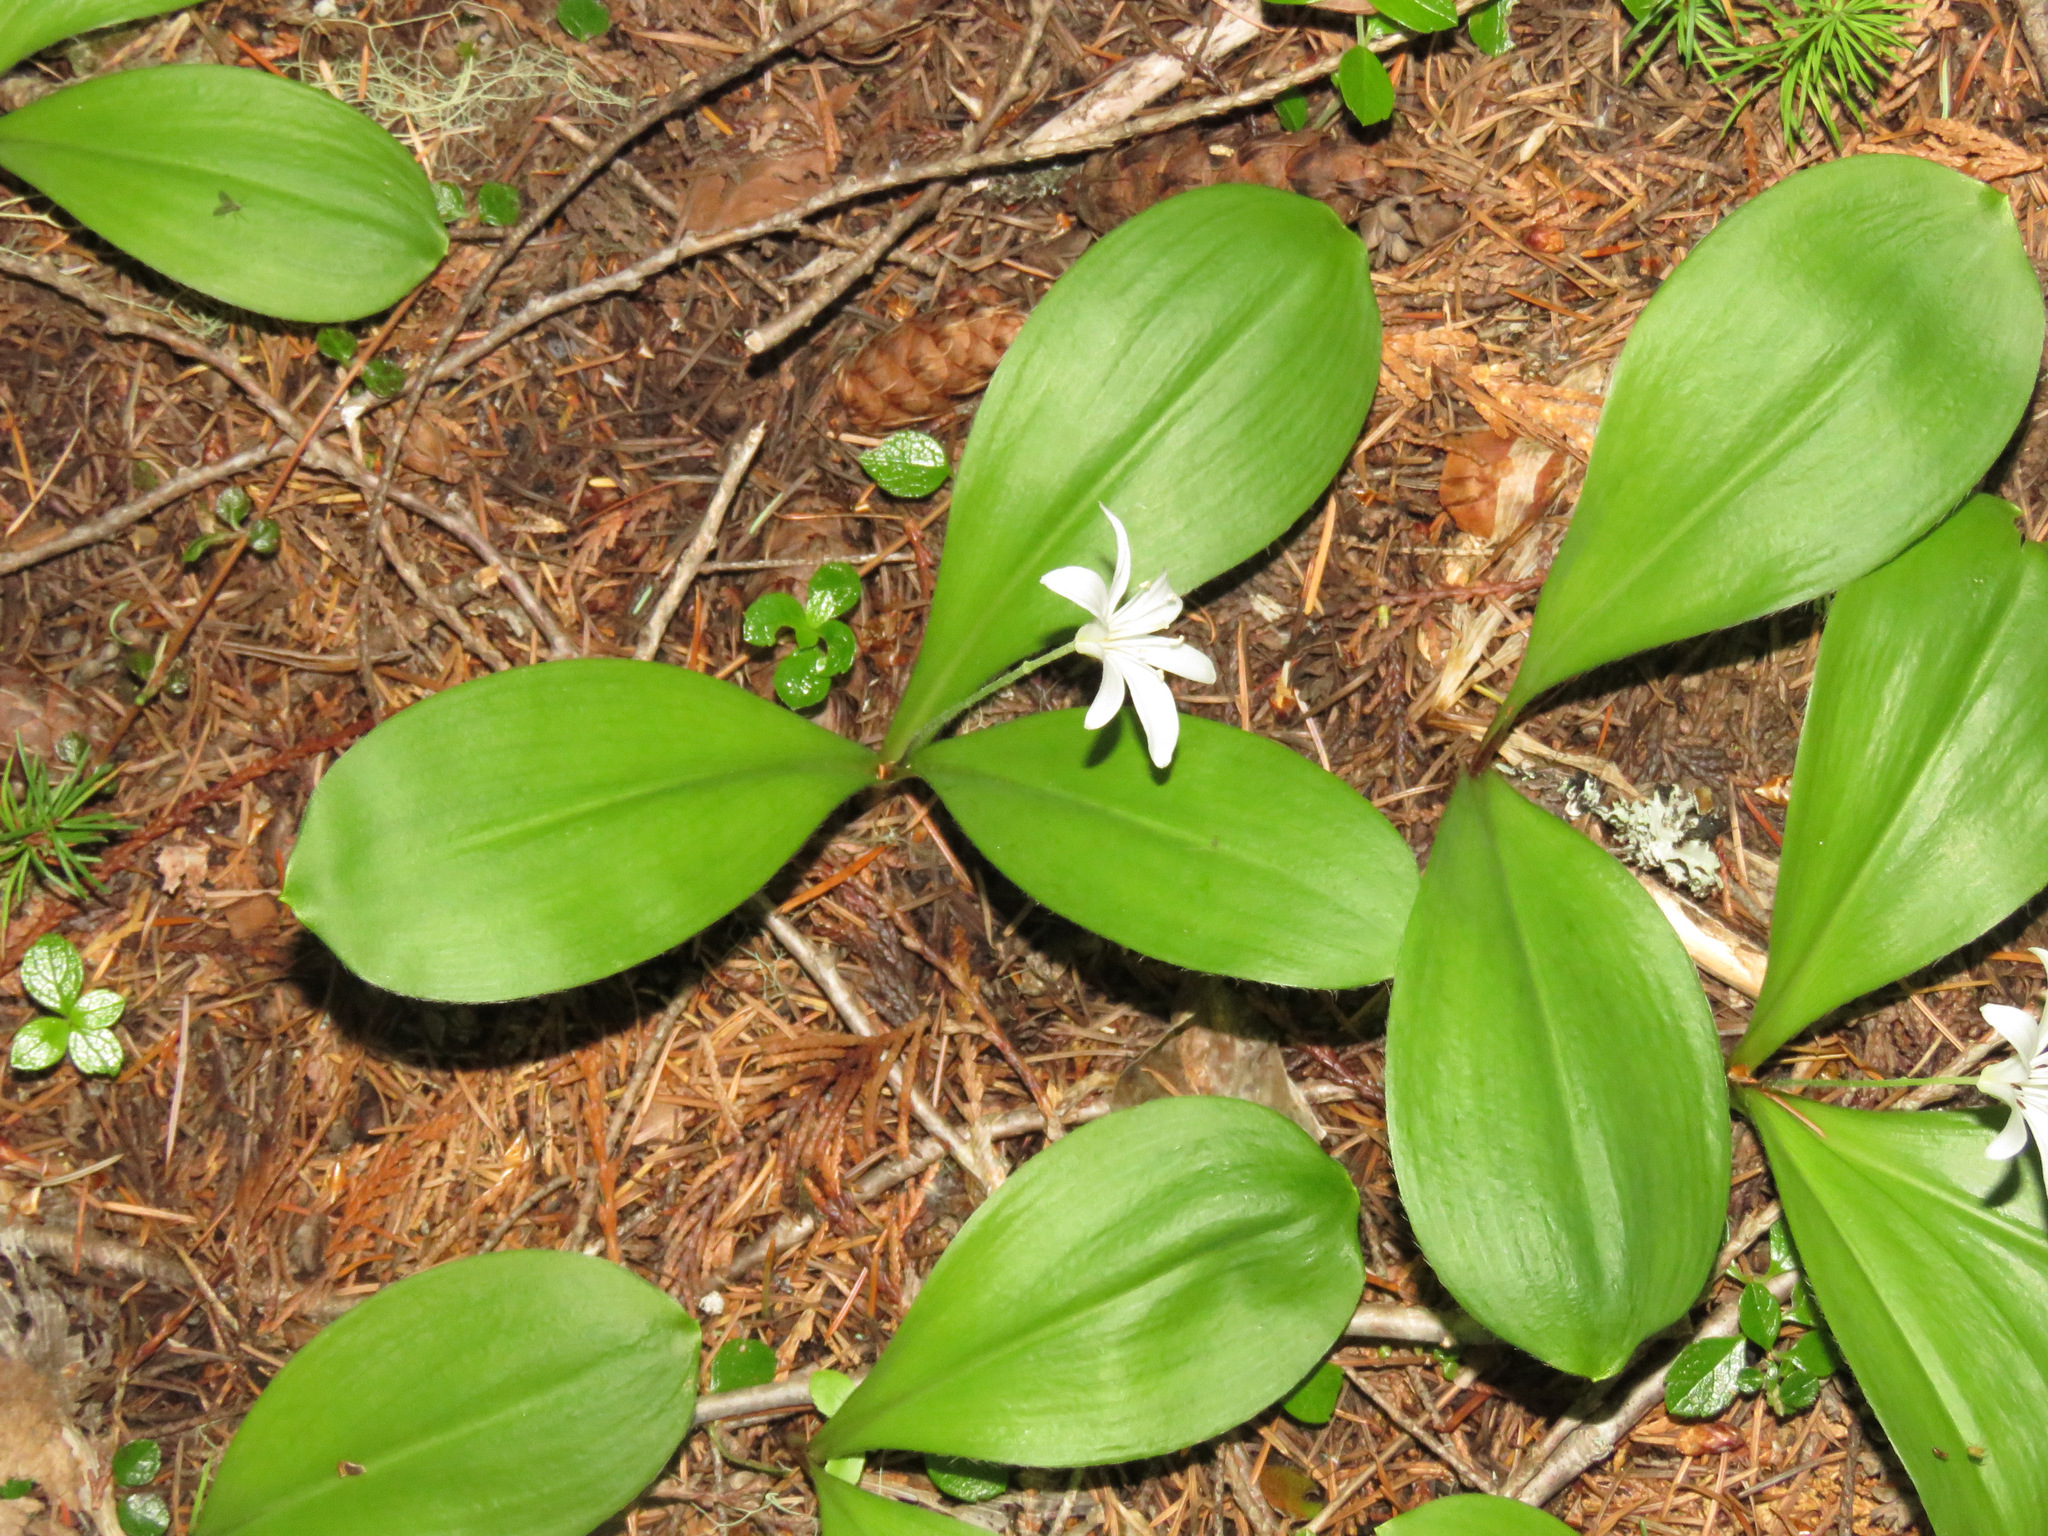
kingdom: Plantae
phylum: Tracheophyta
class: Liliopsida
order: Liliales
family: Liliaceae
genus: Clintonia
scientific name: Clintonia uniflora
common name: Queen's cup
